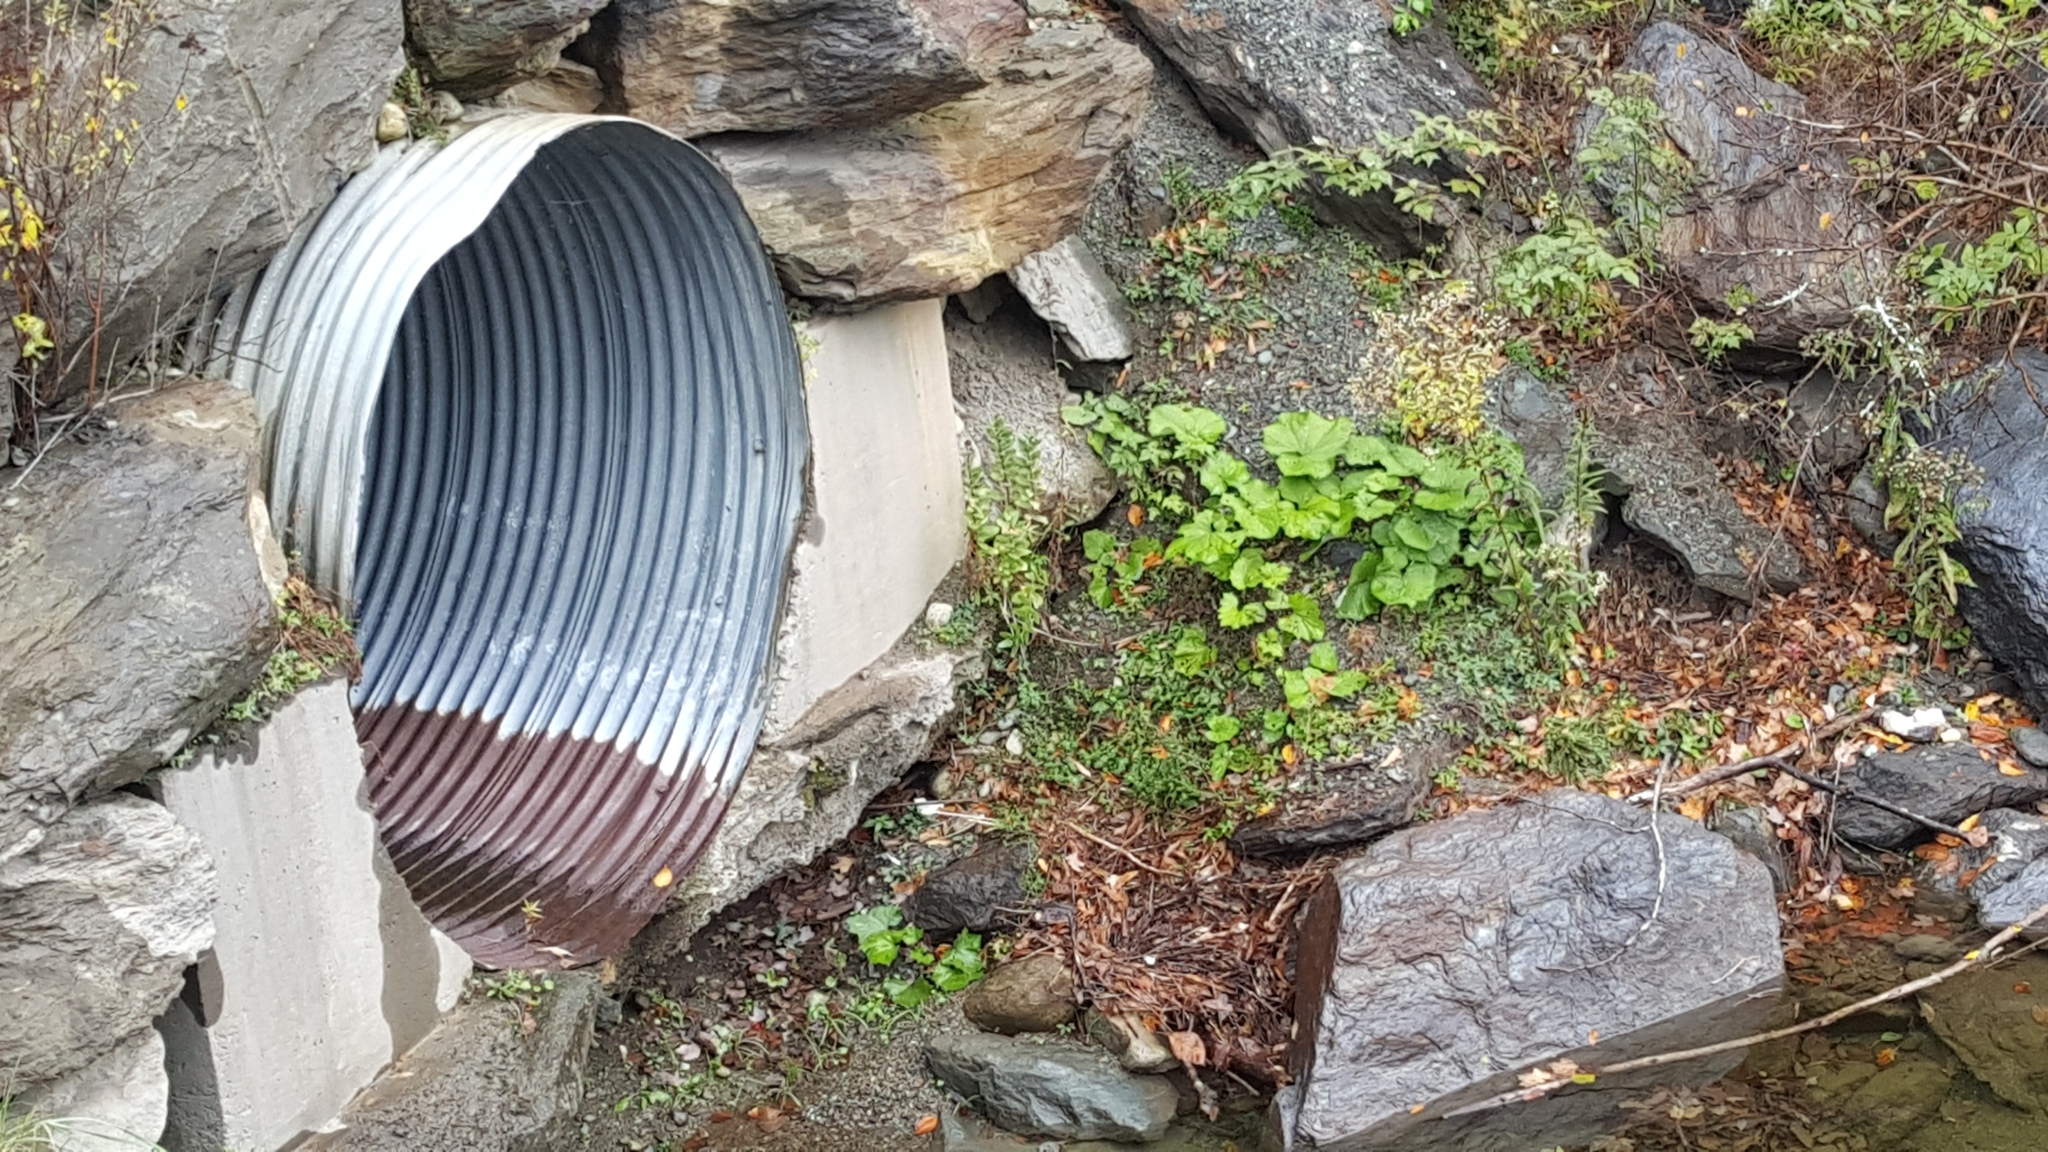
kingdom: Plantae
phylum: Tracheophyta
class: Magnoliopsida
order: Asterales
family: Asteraceae
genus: Tussilago
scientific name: Tussilago farfara
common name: Coltsfoot
